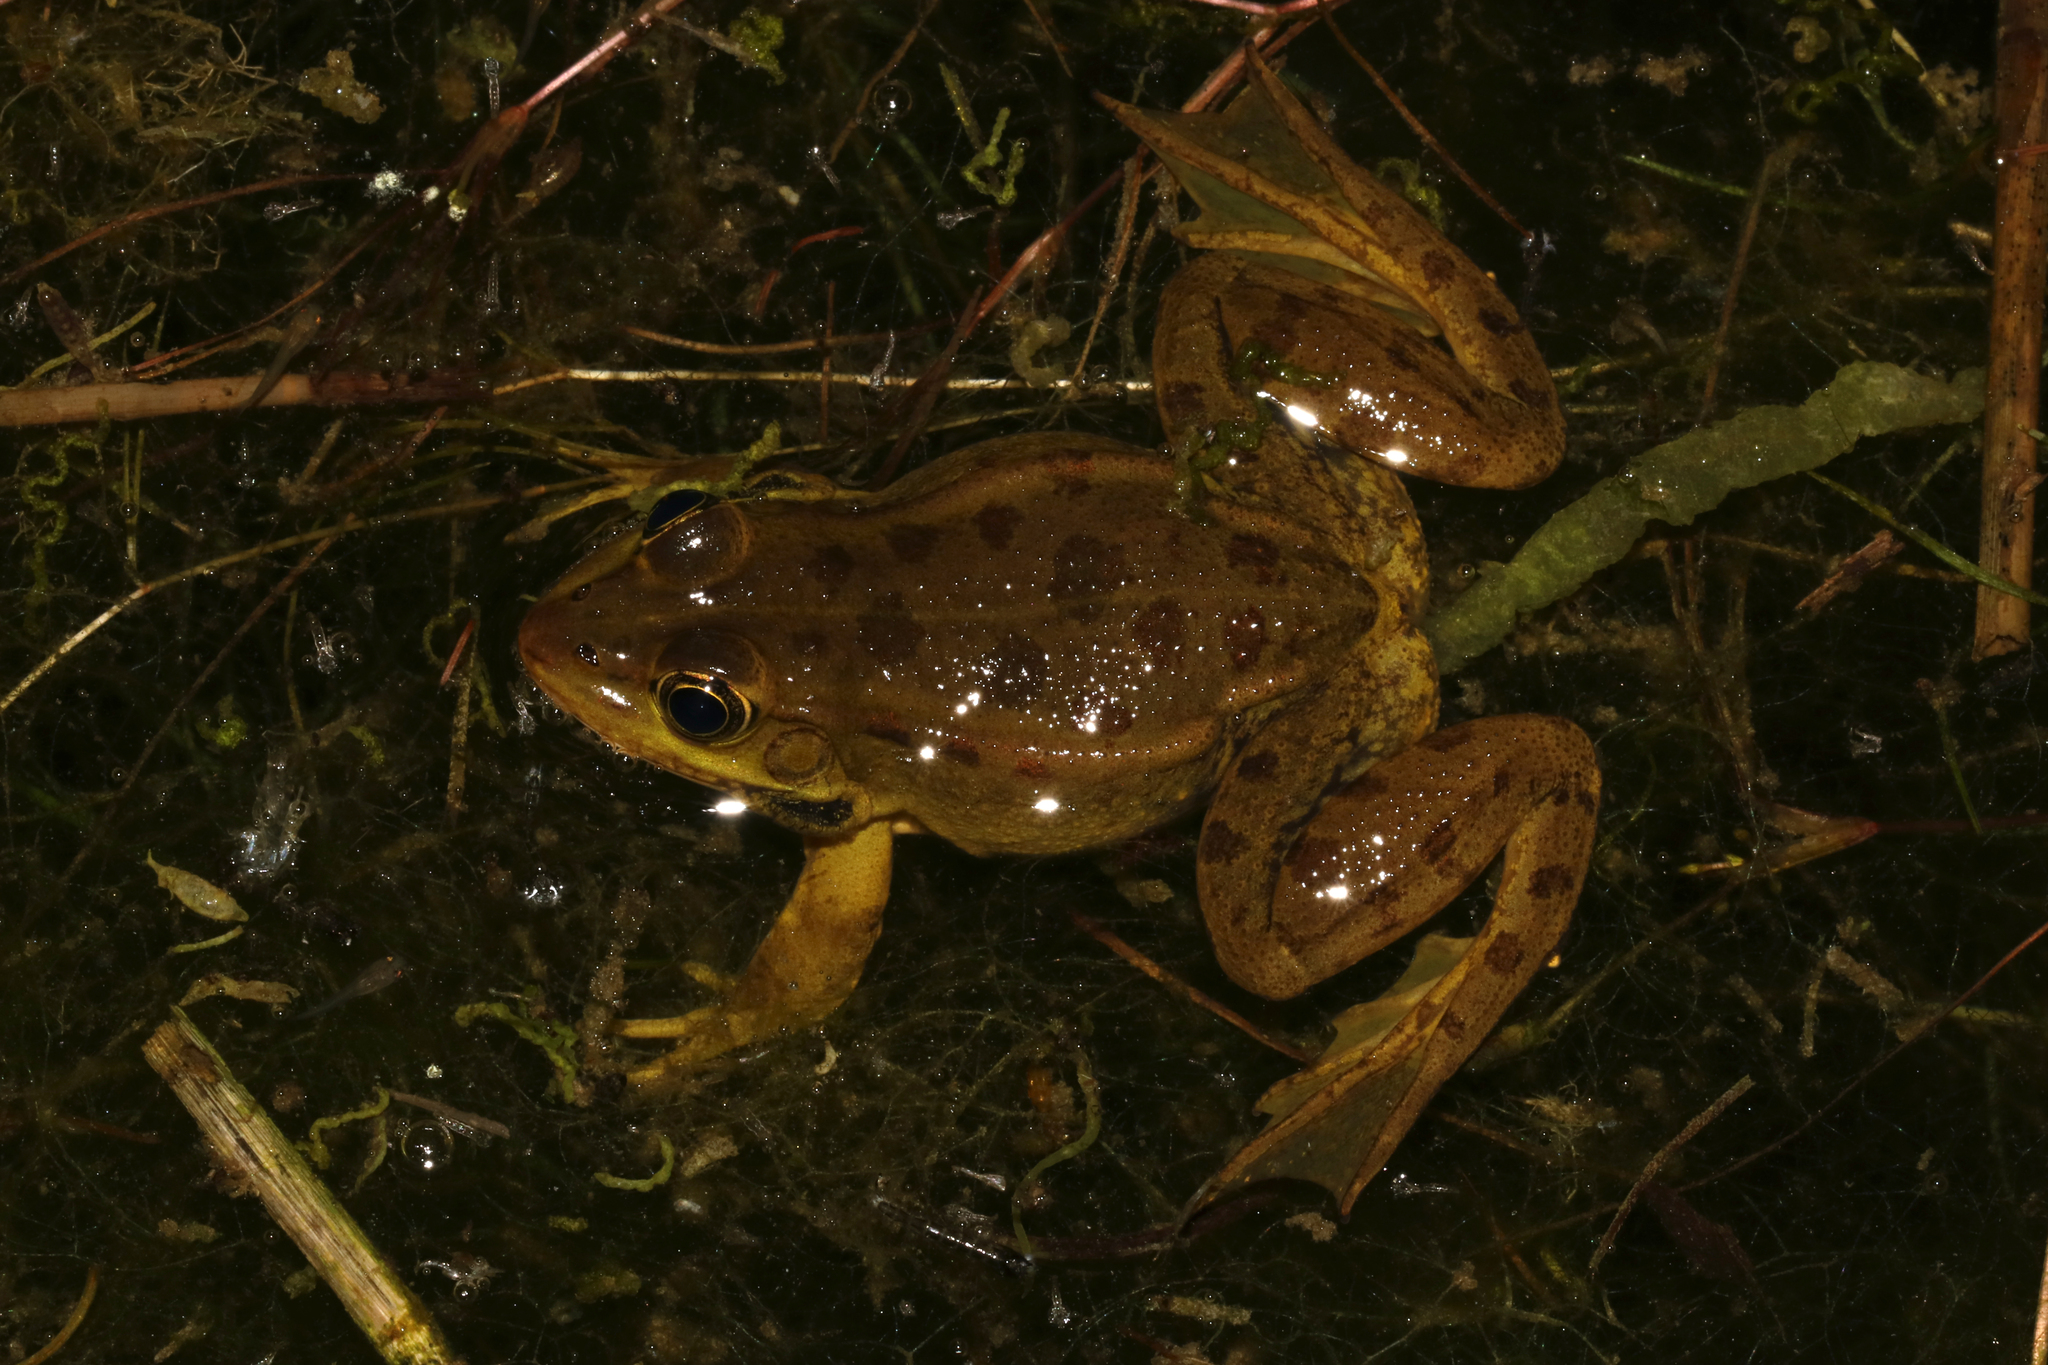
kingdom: Animalia
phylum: Chordata
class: Amphibia
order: Anura
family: Ranidae
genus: Pelophylax
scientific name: Pelophylax epeiroticus
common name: Epirus water frog
